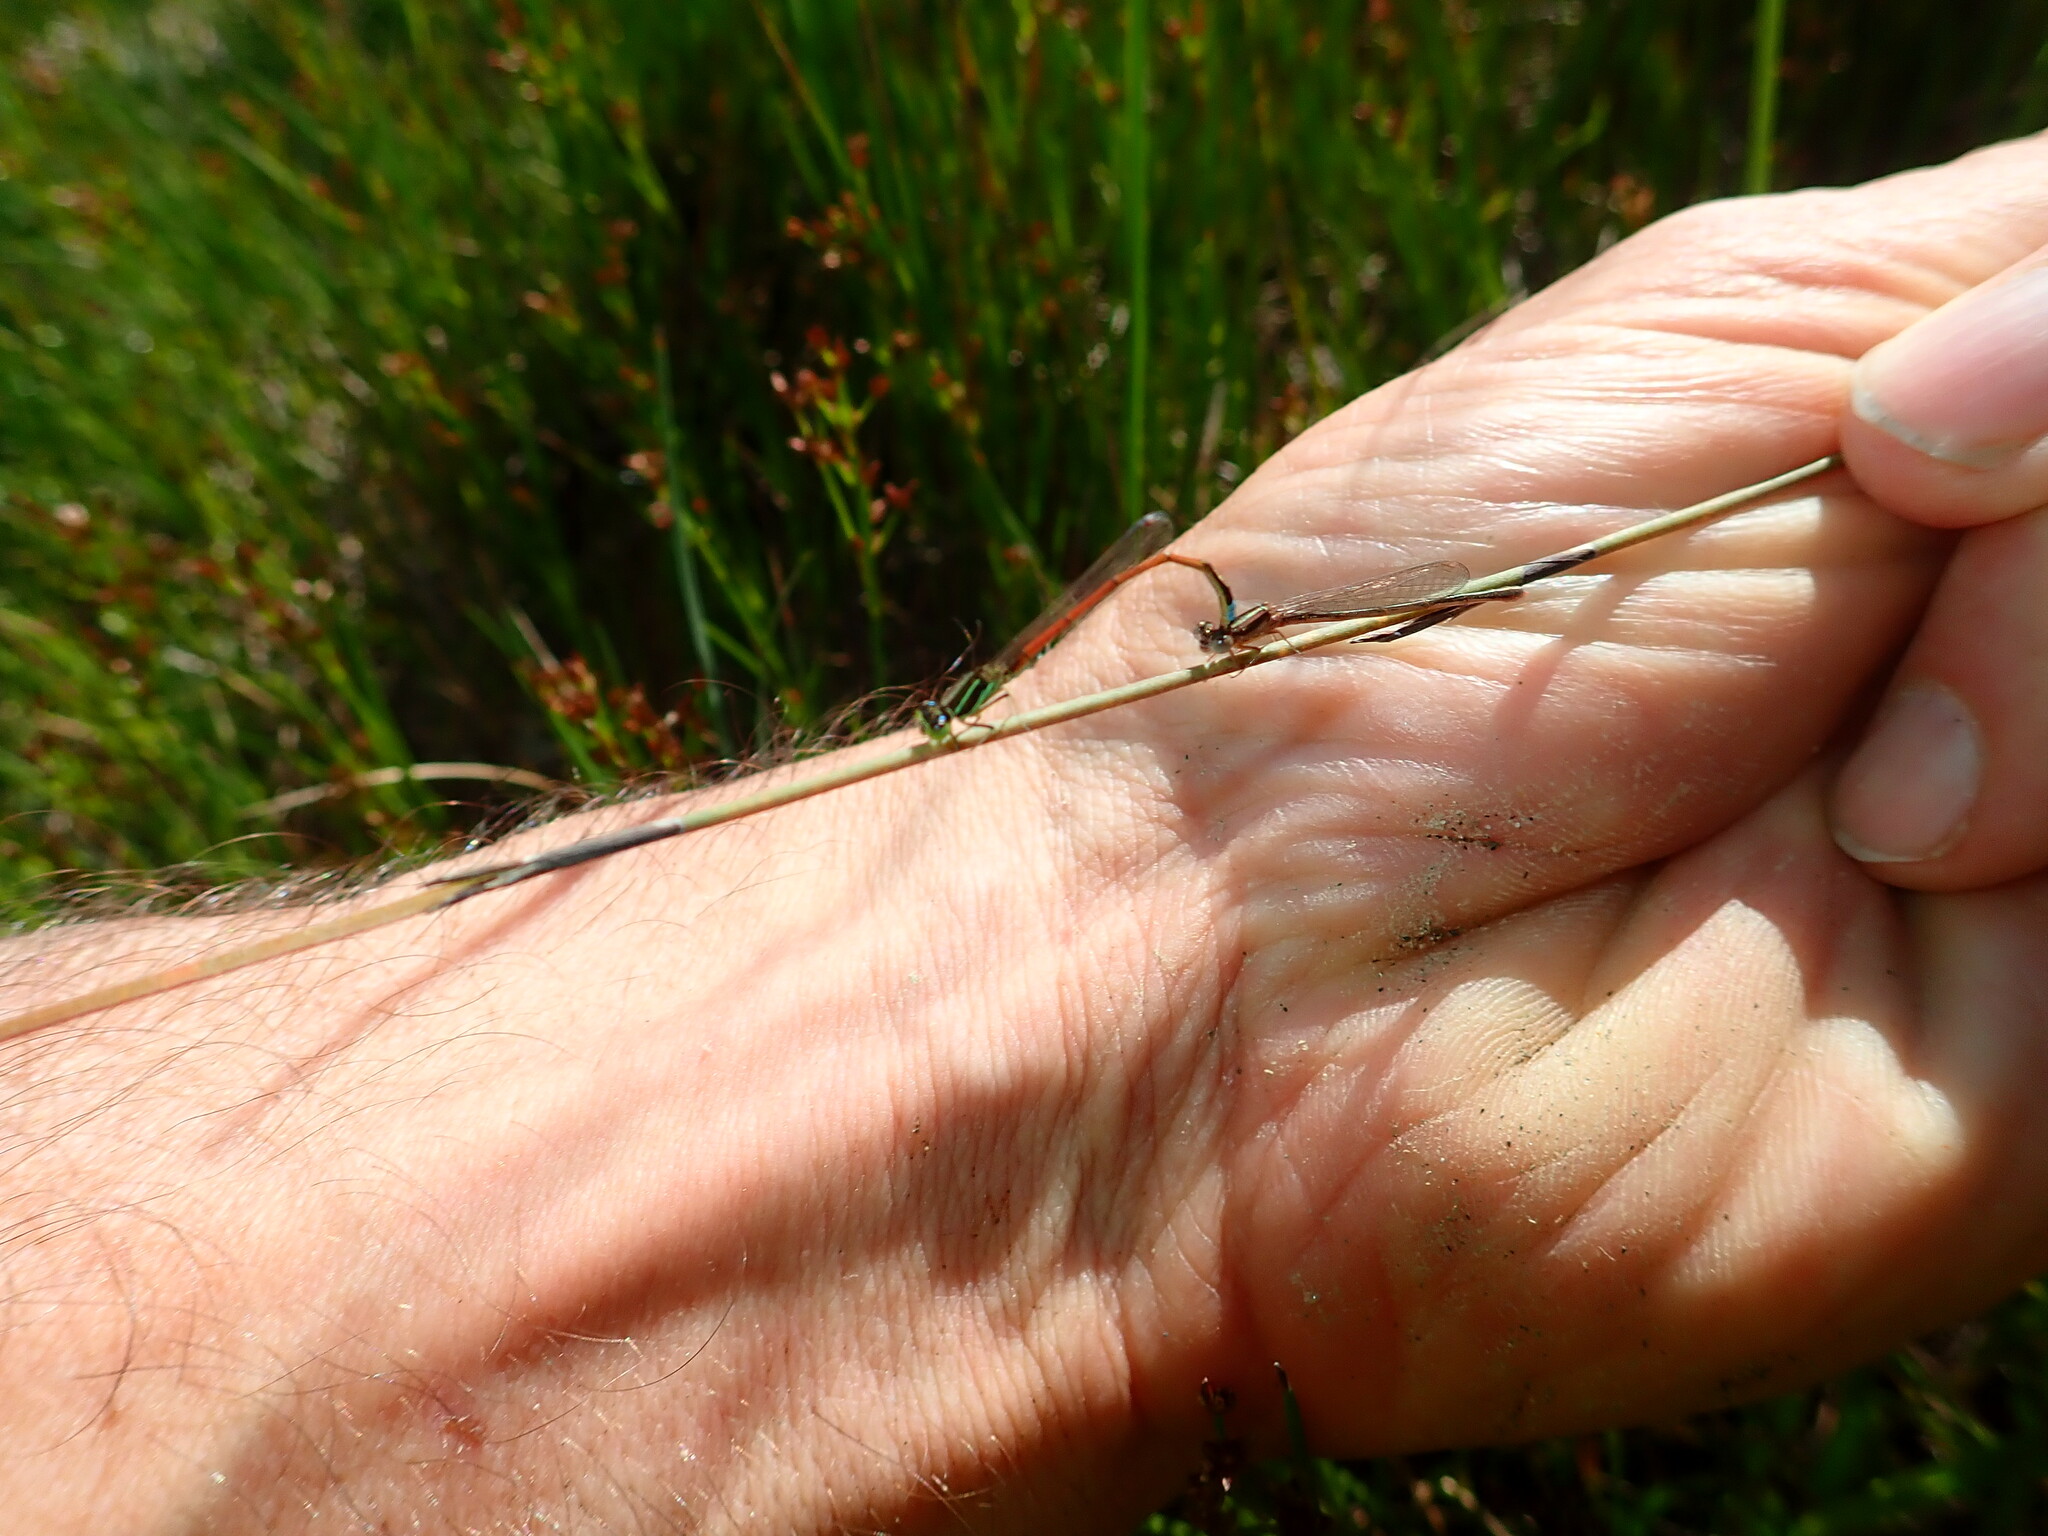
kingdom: Animalia
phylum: Arthropoda
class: Insecta
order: Odonata
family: Coenagrionidae
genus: Ischnura
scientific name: Ischnura aurora
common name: Gossamer damselfly
